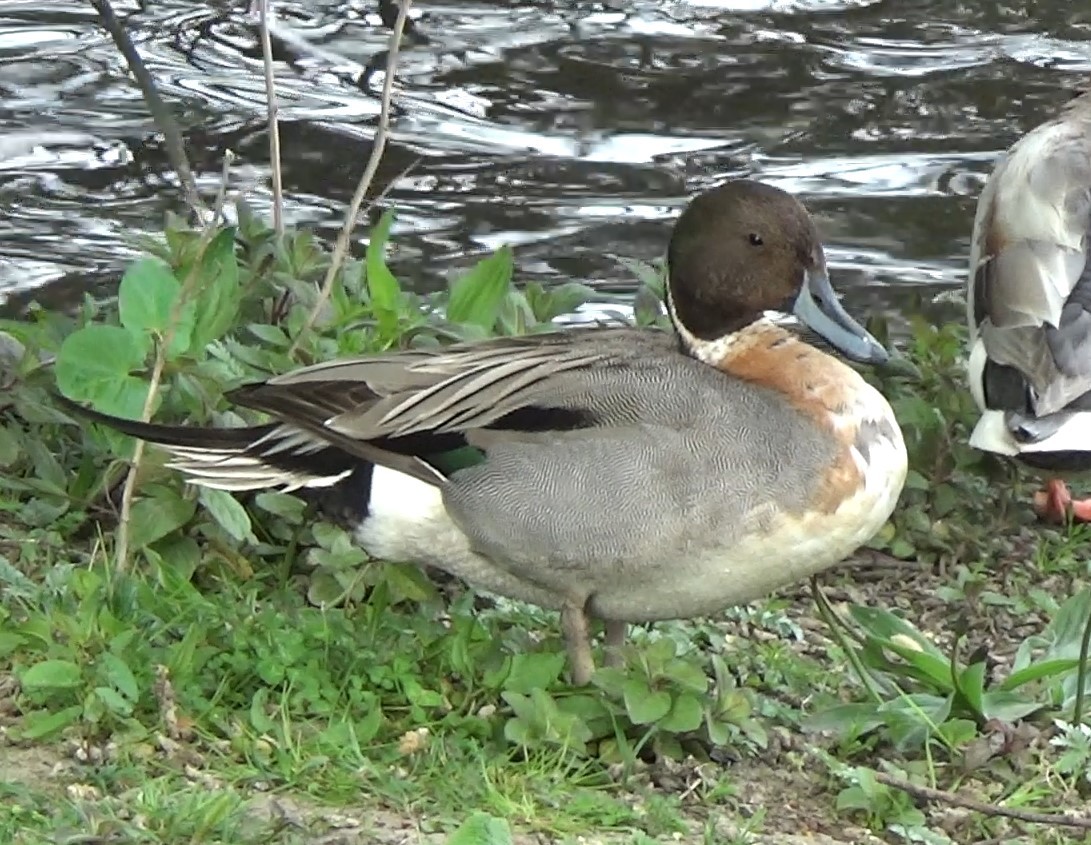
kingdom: Animalia
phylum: Chordata
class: Aves
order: Anseriformes
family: Anatidae
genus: Anas
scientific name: Anas acuta
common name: Northern pintail
